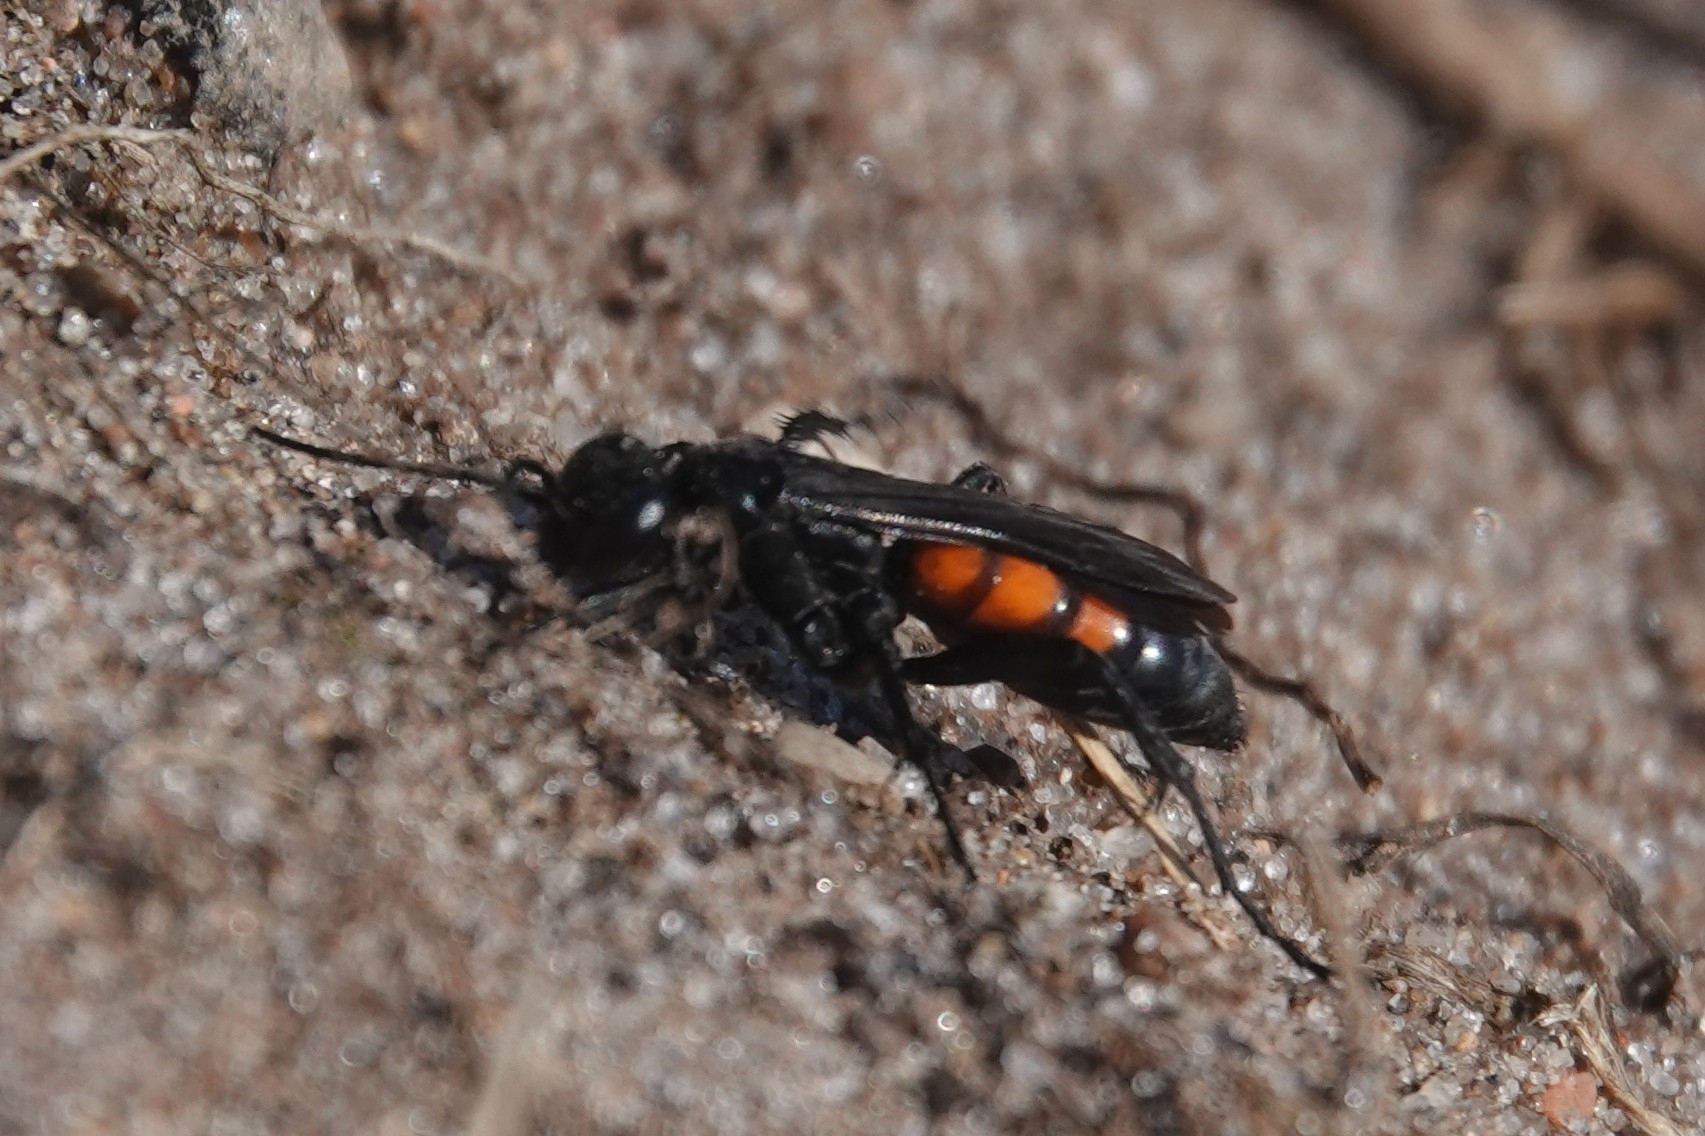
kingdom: Animalia
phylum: Arthropoda
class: Insecta
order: Hymenoptera
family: Pompilidae
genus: Anoplius
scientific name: Anoplius viaticus
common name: Black banded spider wasp
